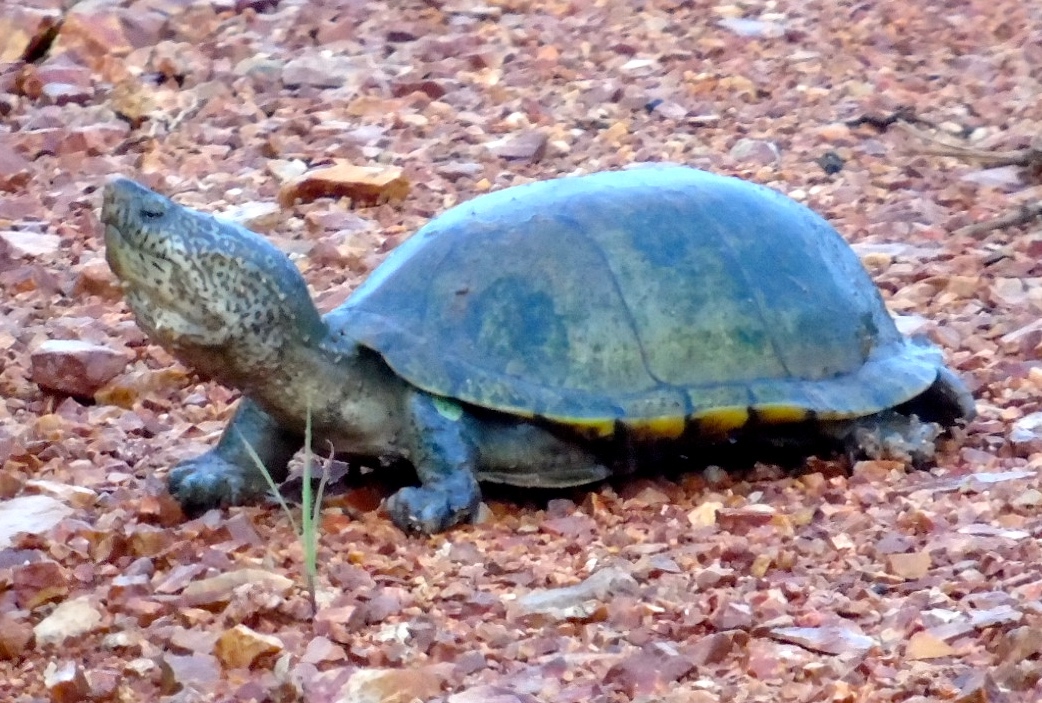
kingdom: Animalia
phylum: Chordata
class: Testudines
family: Kinosternidae
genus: Kinosternon
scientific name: Kinosternon integrum
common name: Mexican mud turtle
